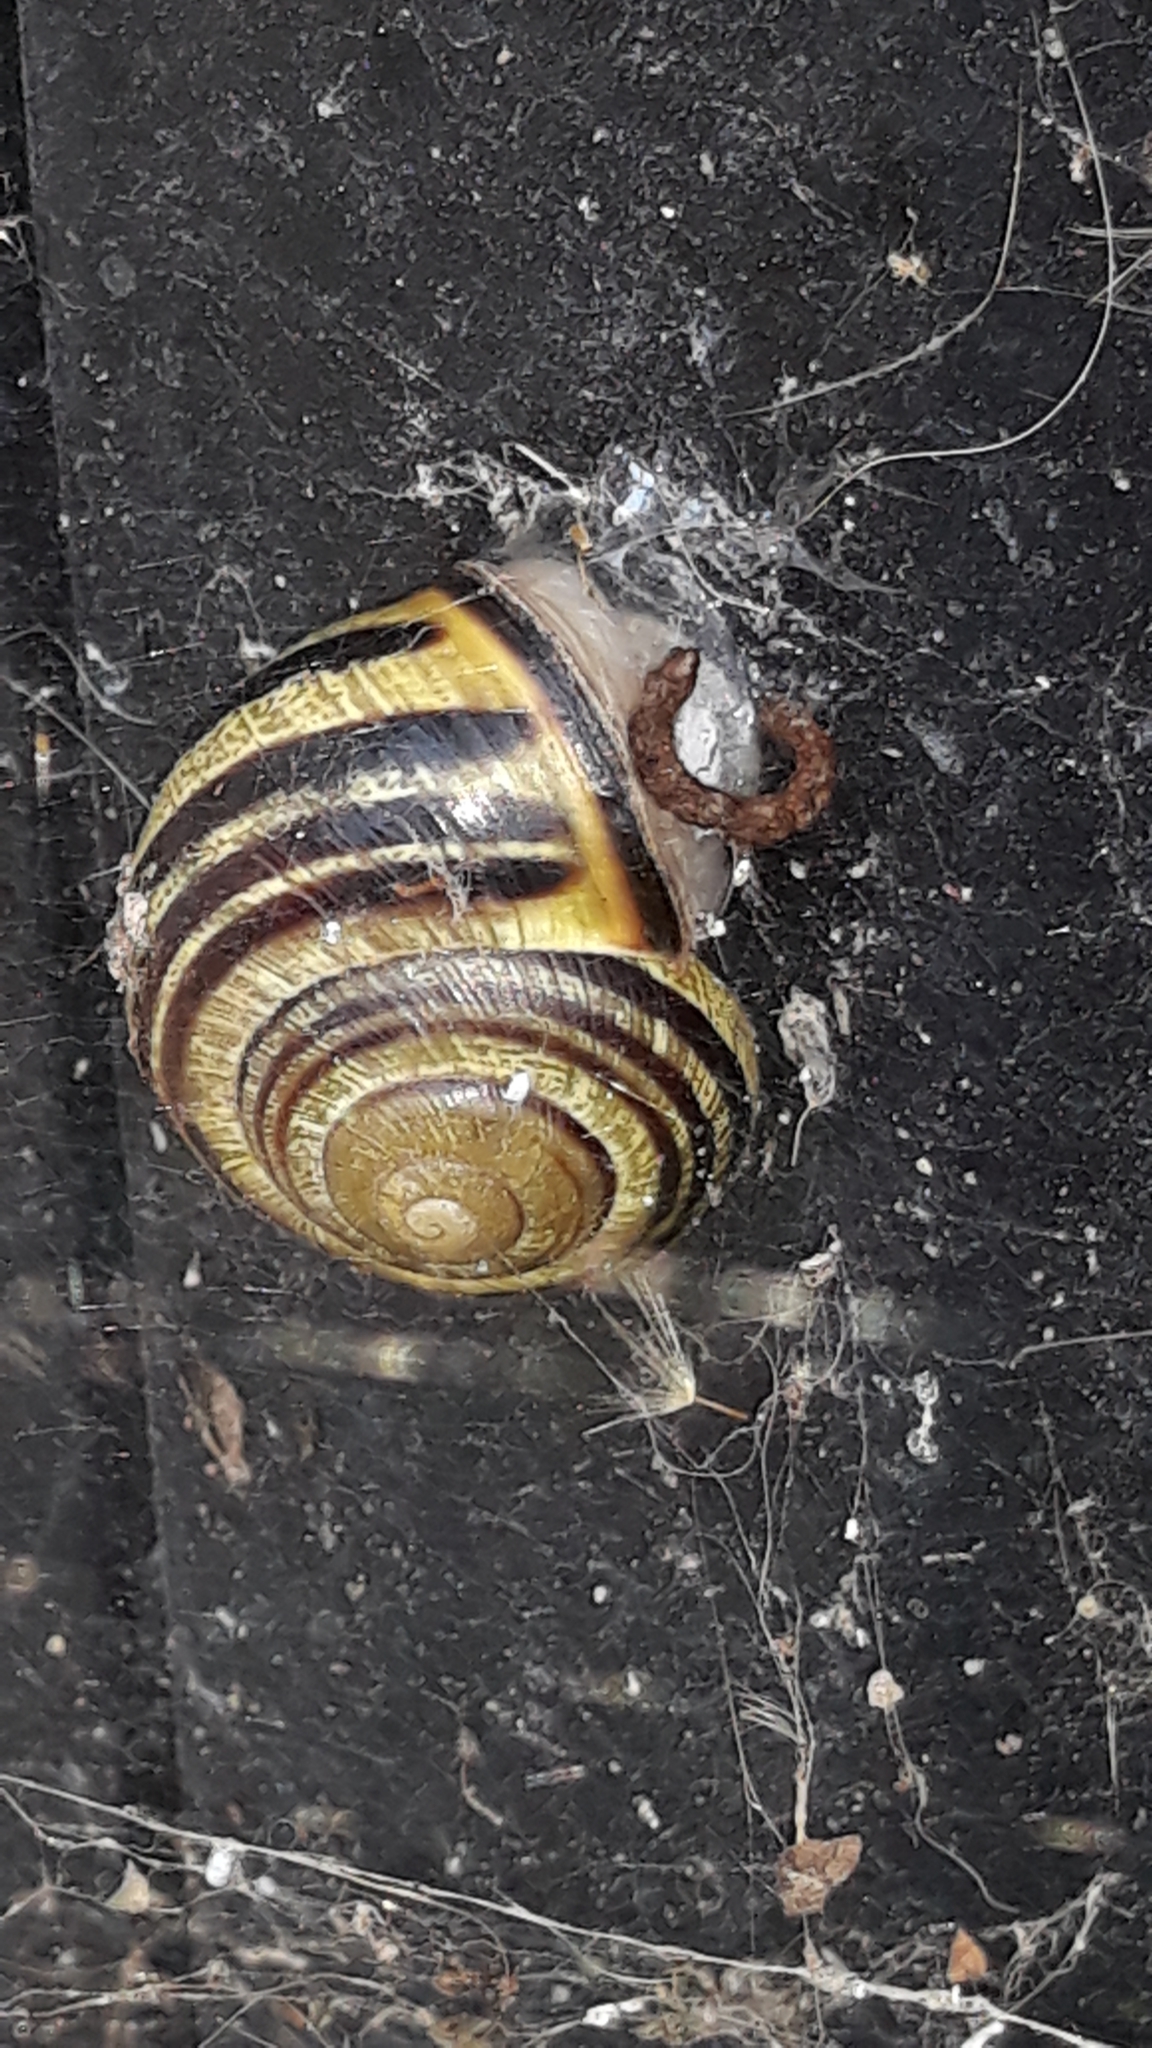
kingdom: Animalia
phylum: Mollusca
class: Gastropoda
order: Stylommatophora
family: Helicidae
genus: Cepaea
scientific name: Cepaea nemoralis
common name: Grovesnail
